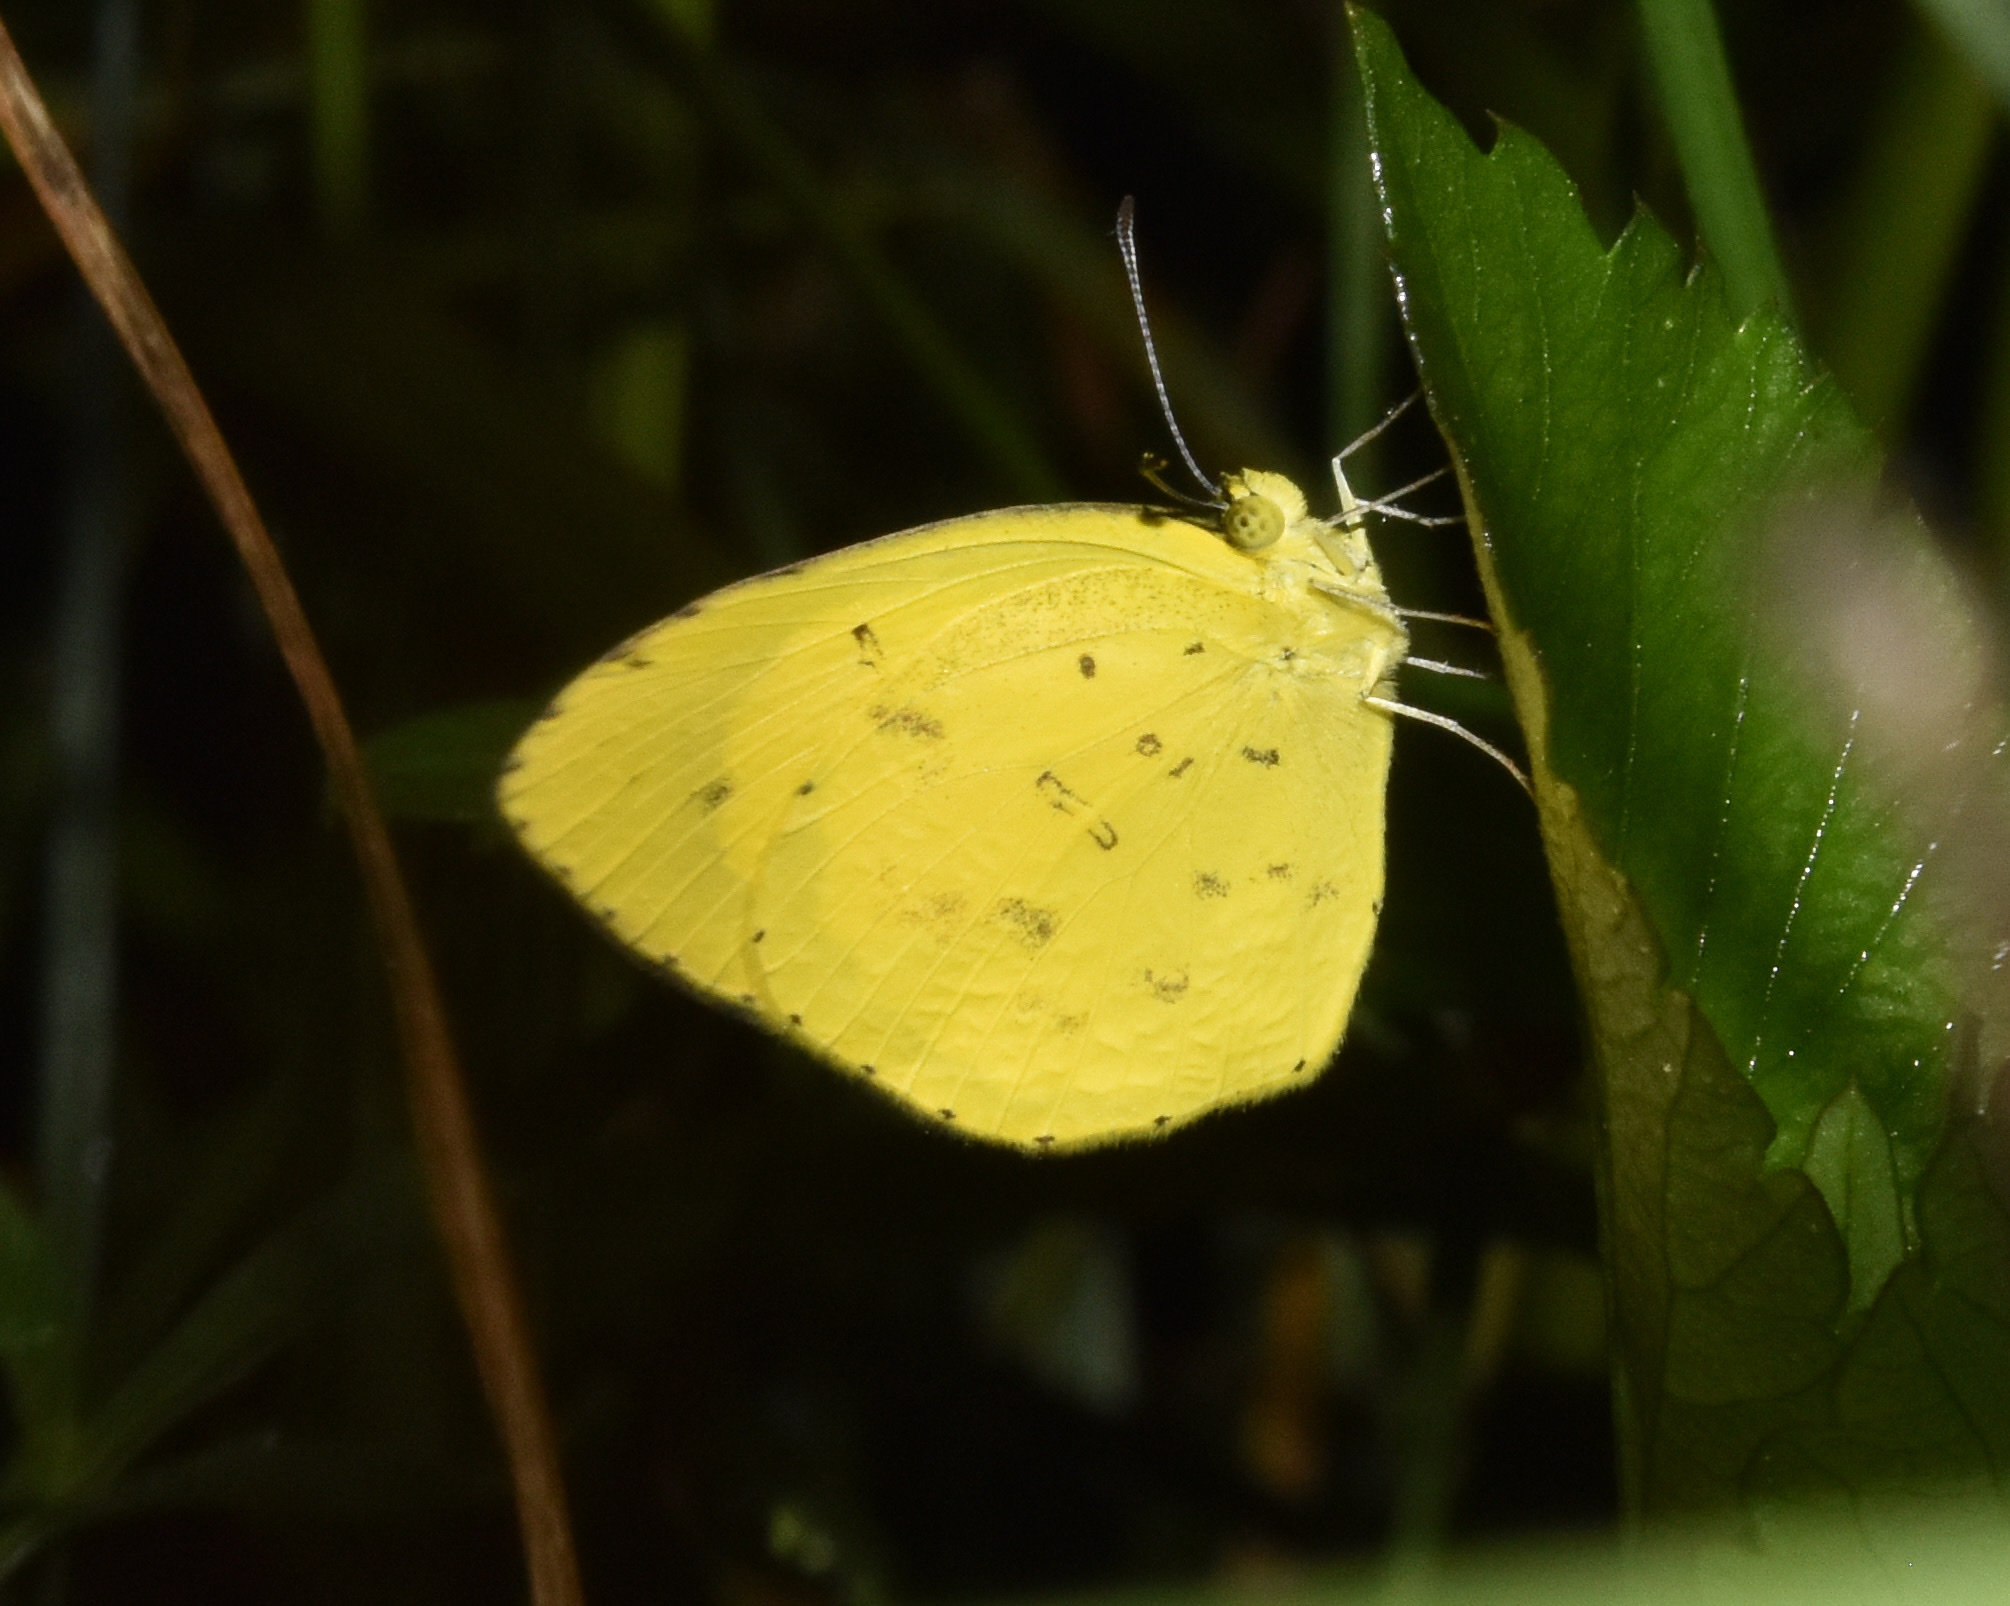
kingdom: Animalia
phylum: Arthropoda
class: Insecta
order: Lepidoptera
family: Pieridae
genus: Eurema
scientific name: Eurema desjardinsii
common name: Angled grass yellow
